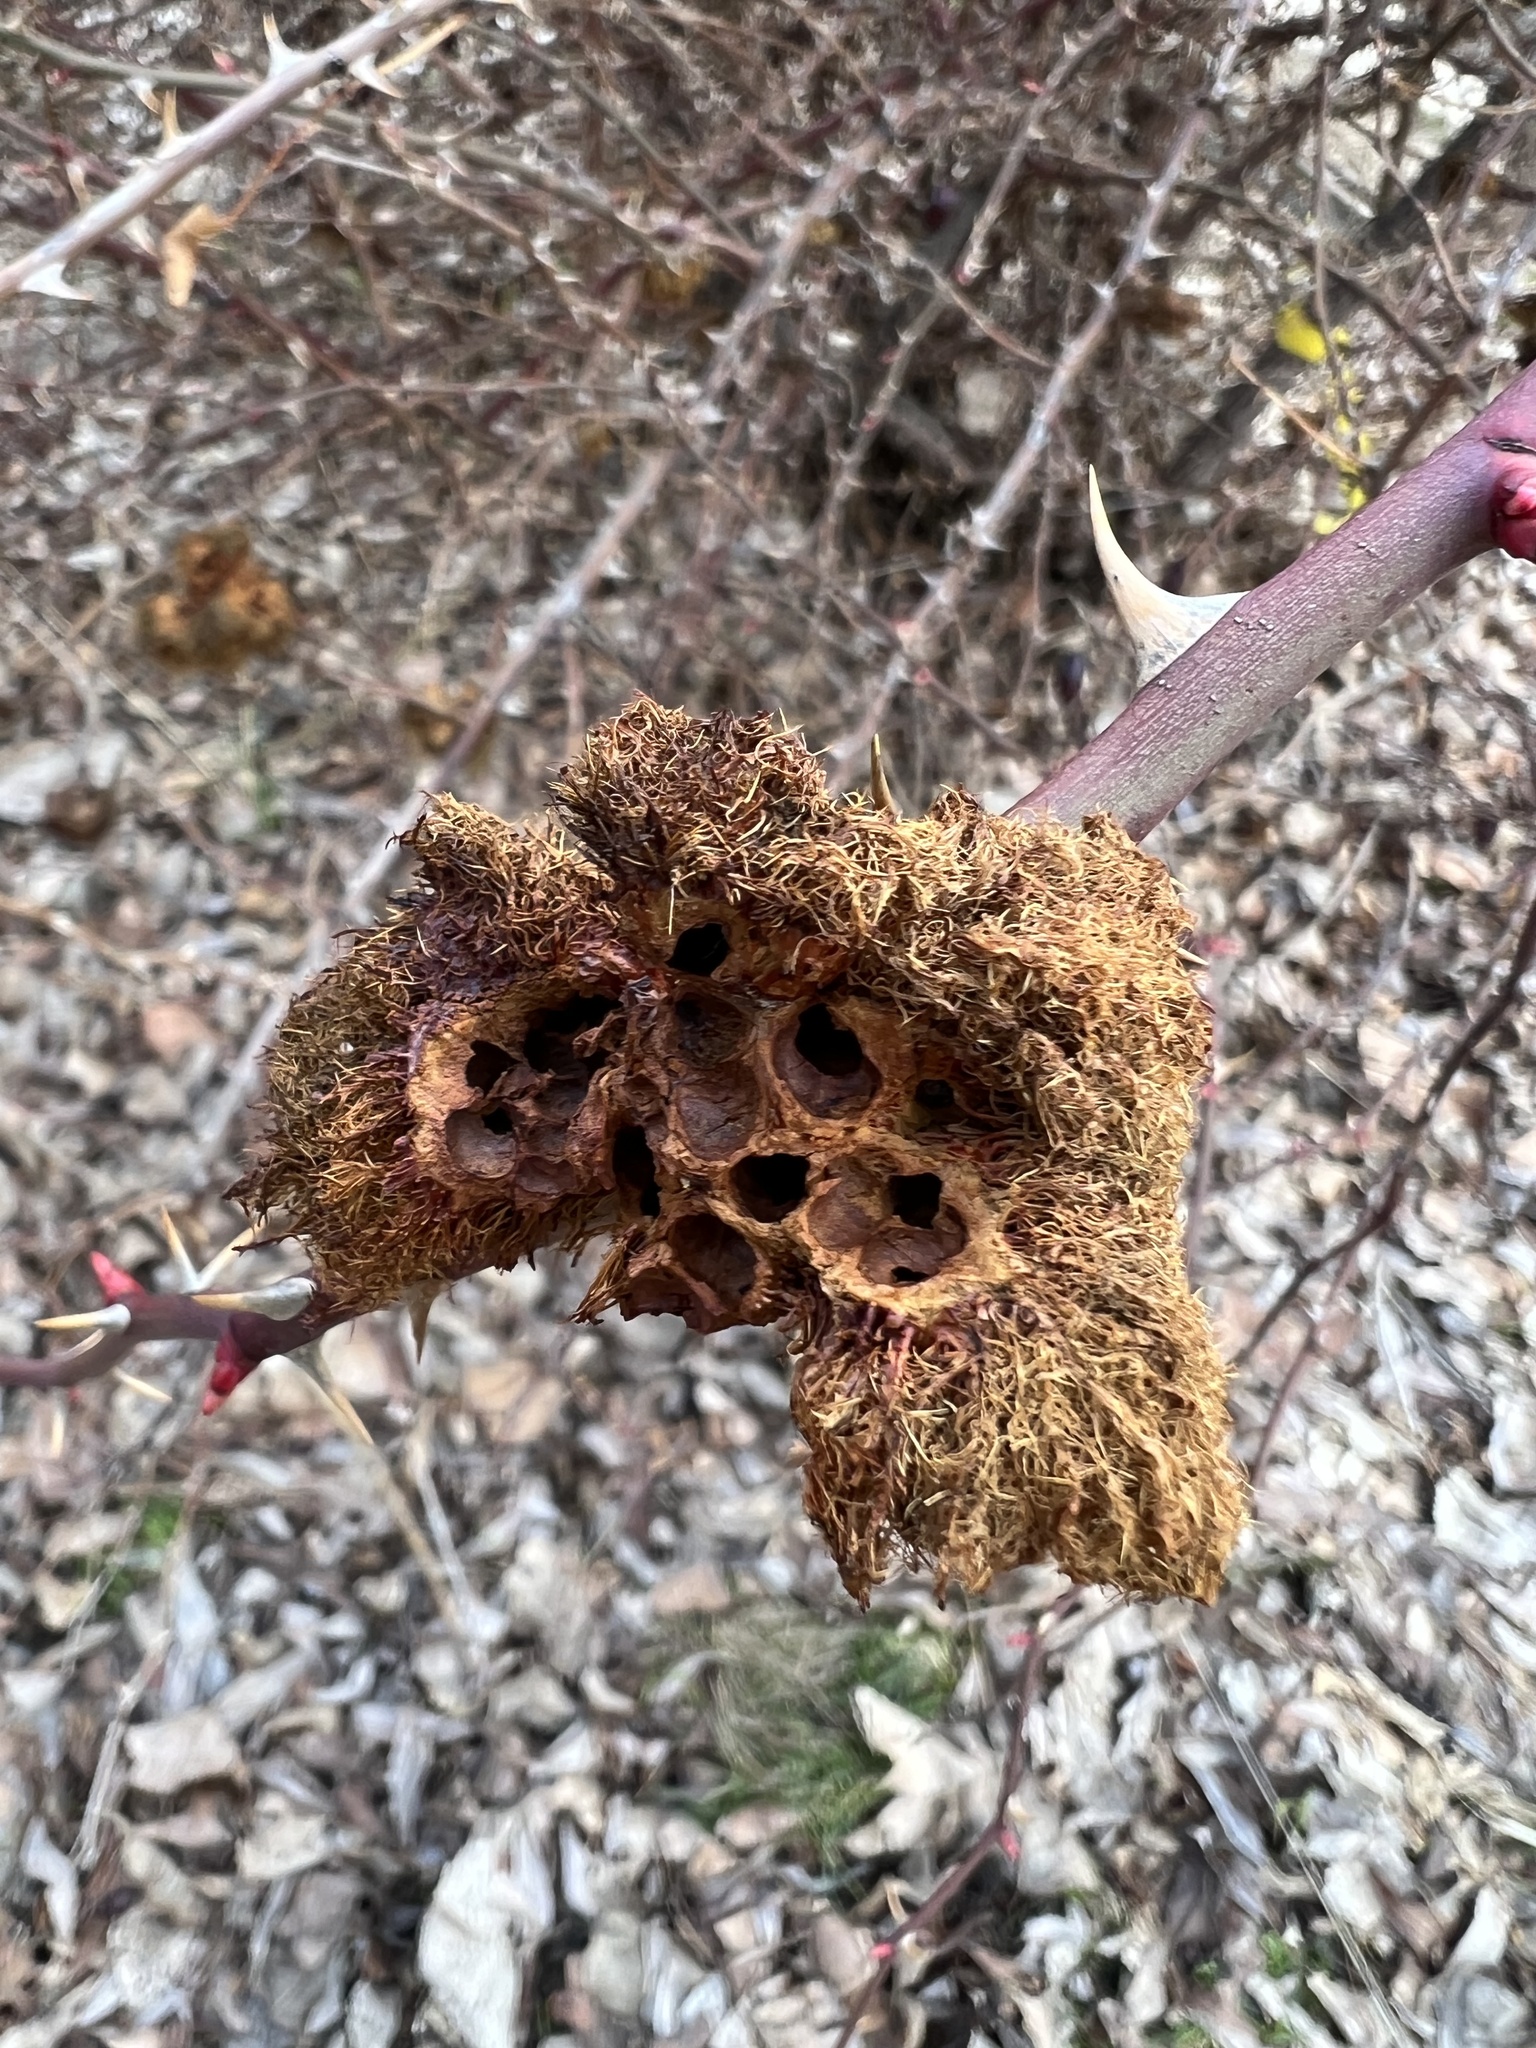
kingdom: Animalia
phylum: Arthropoda
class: Insecta
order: Hymenoptera
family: Cynipidae
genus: Diplolepis
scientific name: Diplolepis rosae
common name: Bedeguar gall
